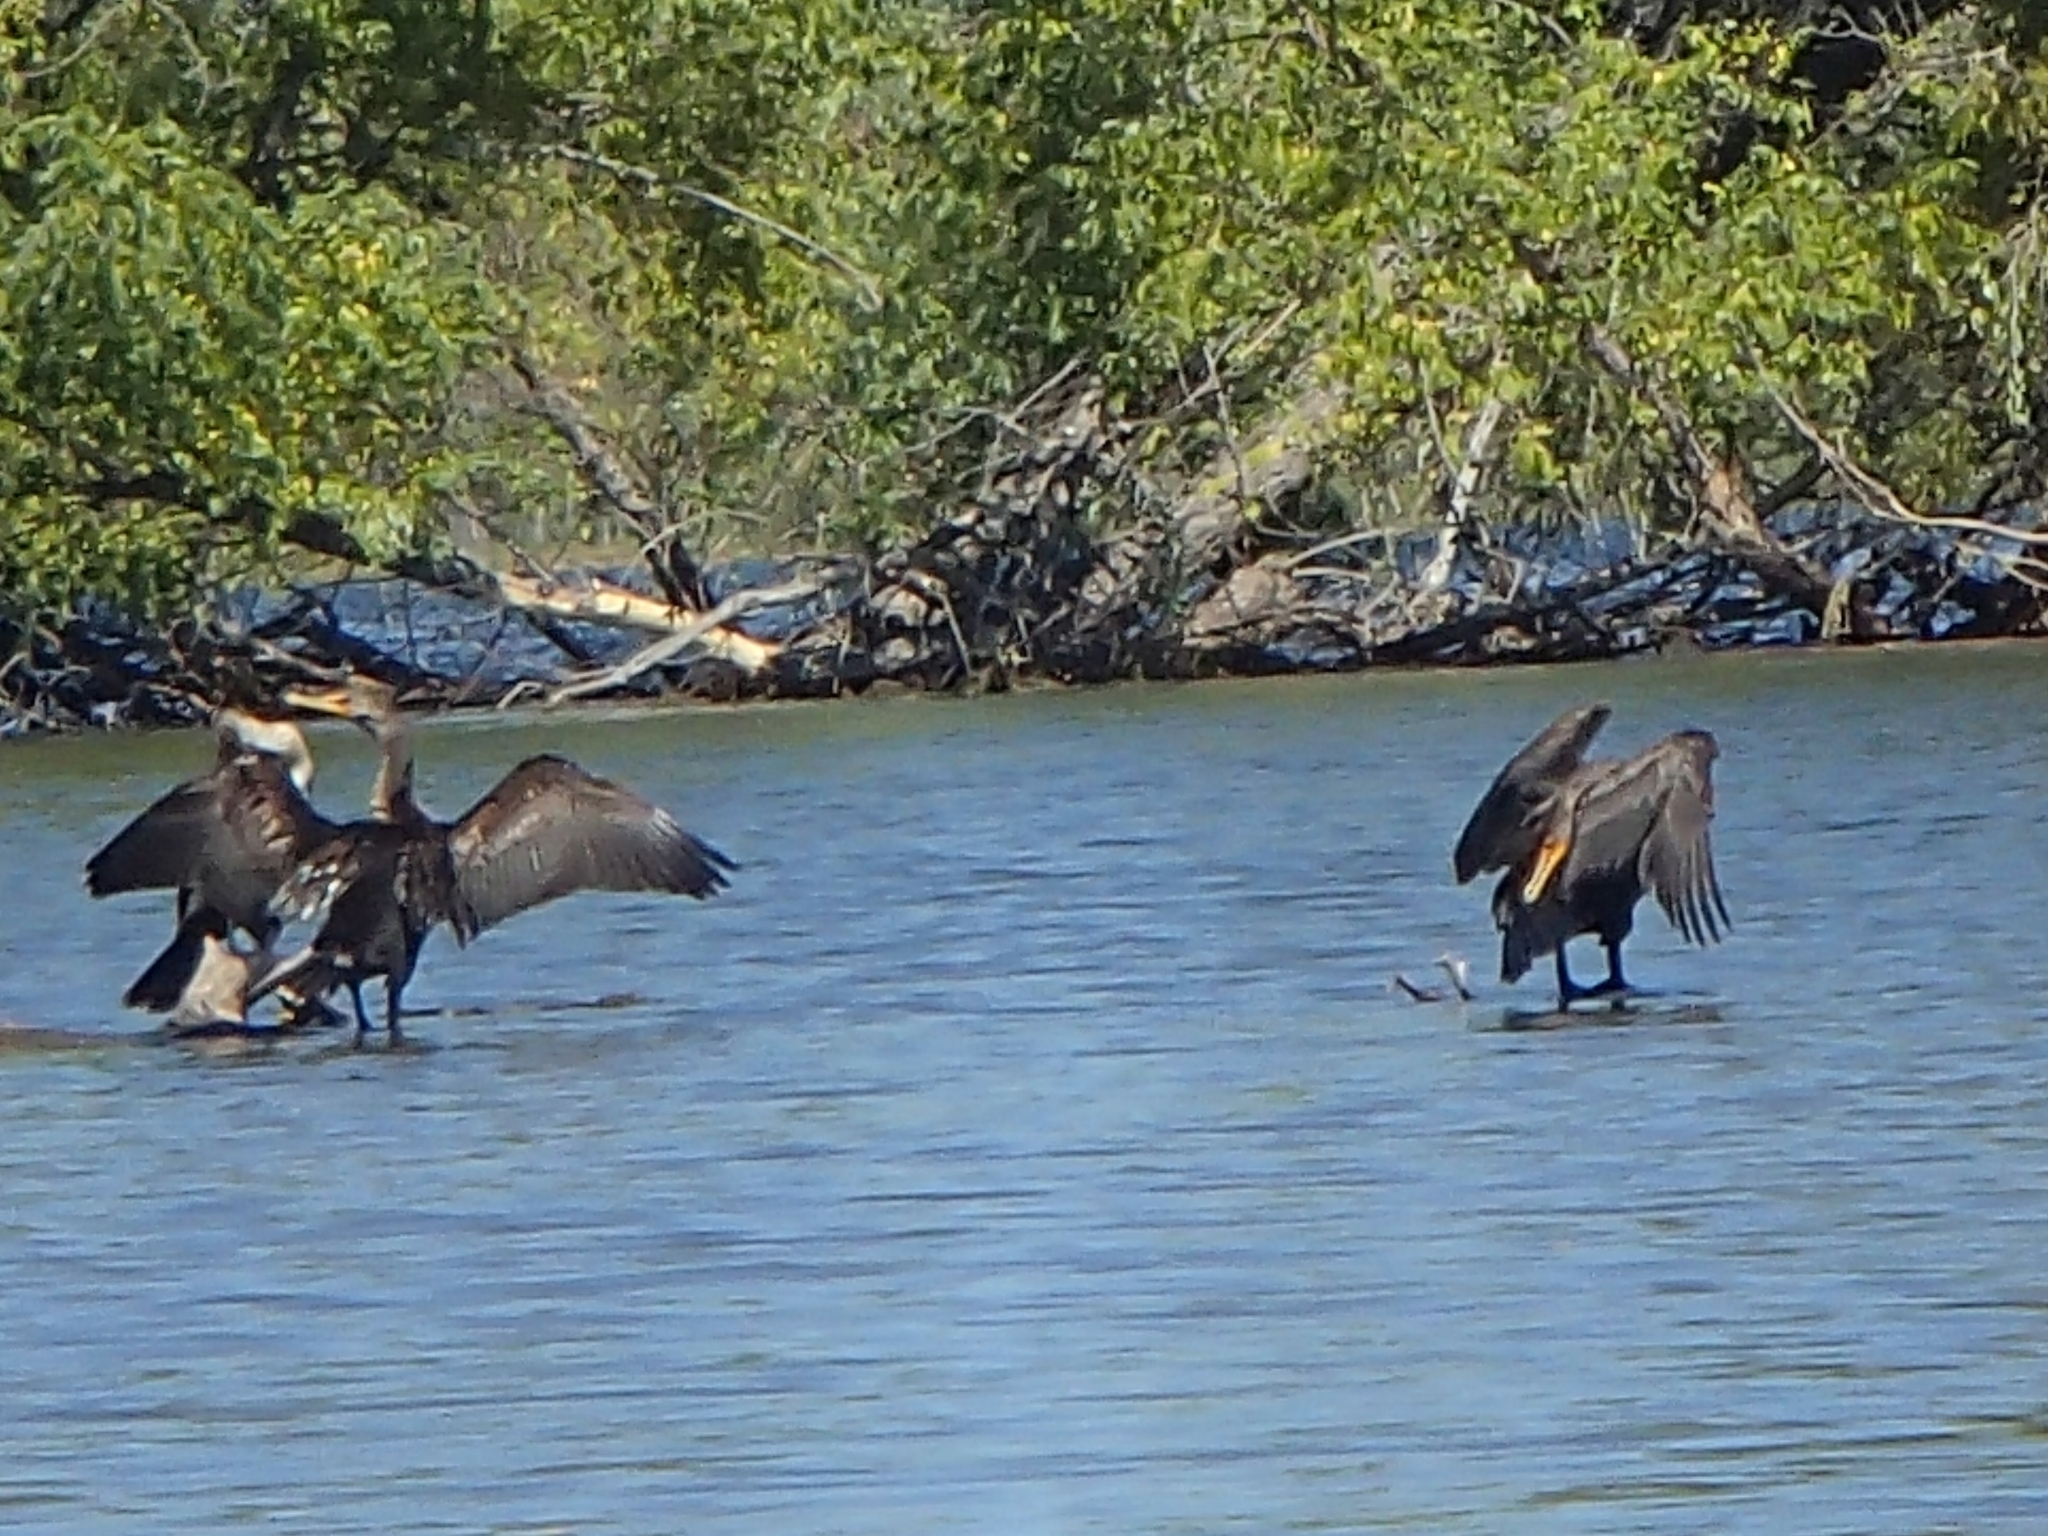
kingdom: Animalia
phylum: Chordata
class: Aves
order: Suliformes
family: Phalacrocoracidae
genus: Phalacrocorax
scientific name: Phalacrocorax auritus
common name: Double-crested cormorant
